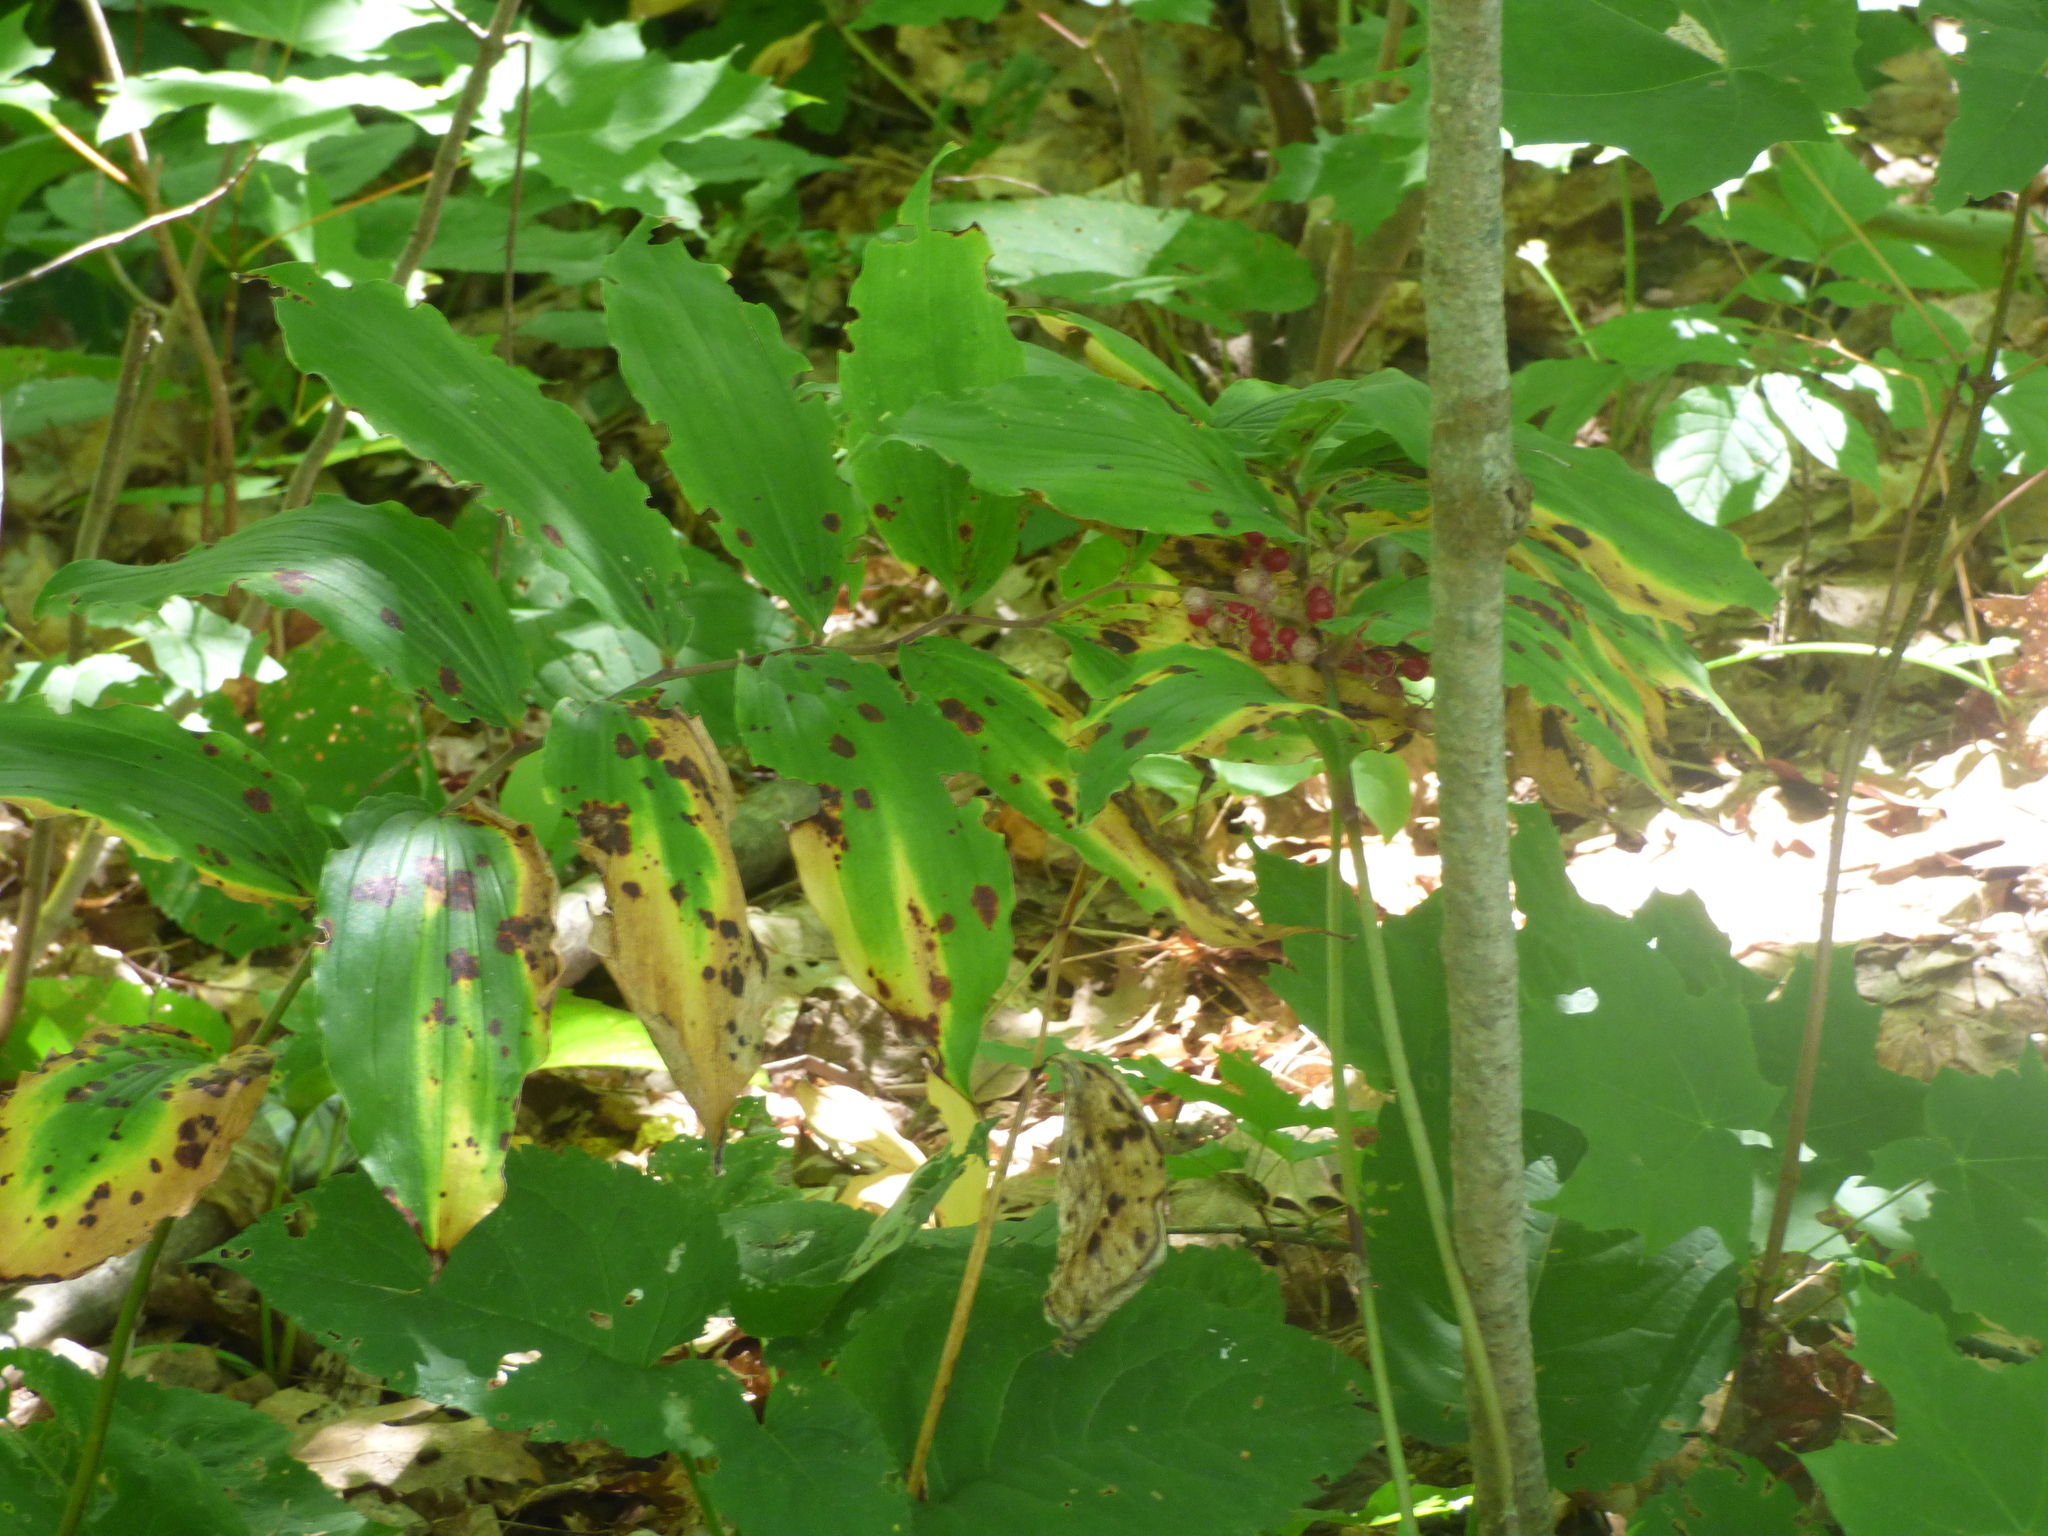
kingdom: Plantae
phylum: Tracheophyta
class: Liliopsida
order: Asparagales
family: Asparagaceae
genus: Maianthemum
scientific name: Maianthemum racemosum
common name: False spikenard
